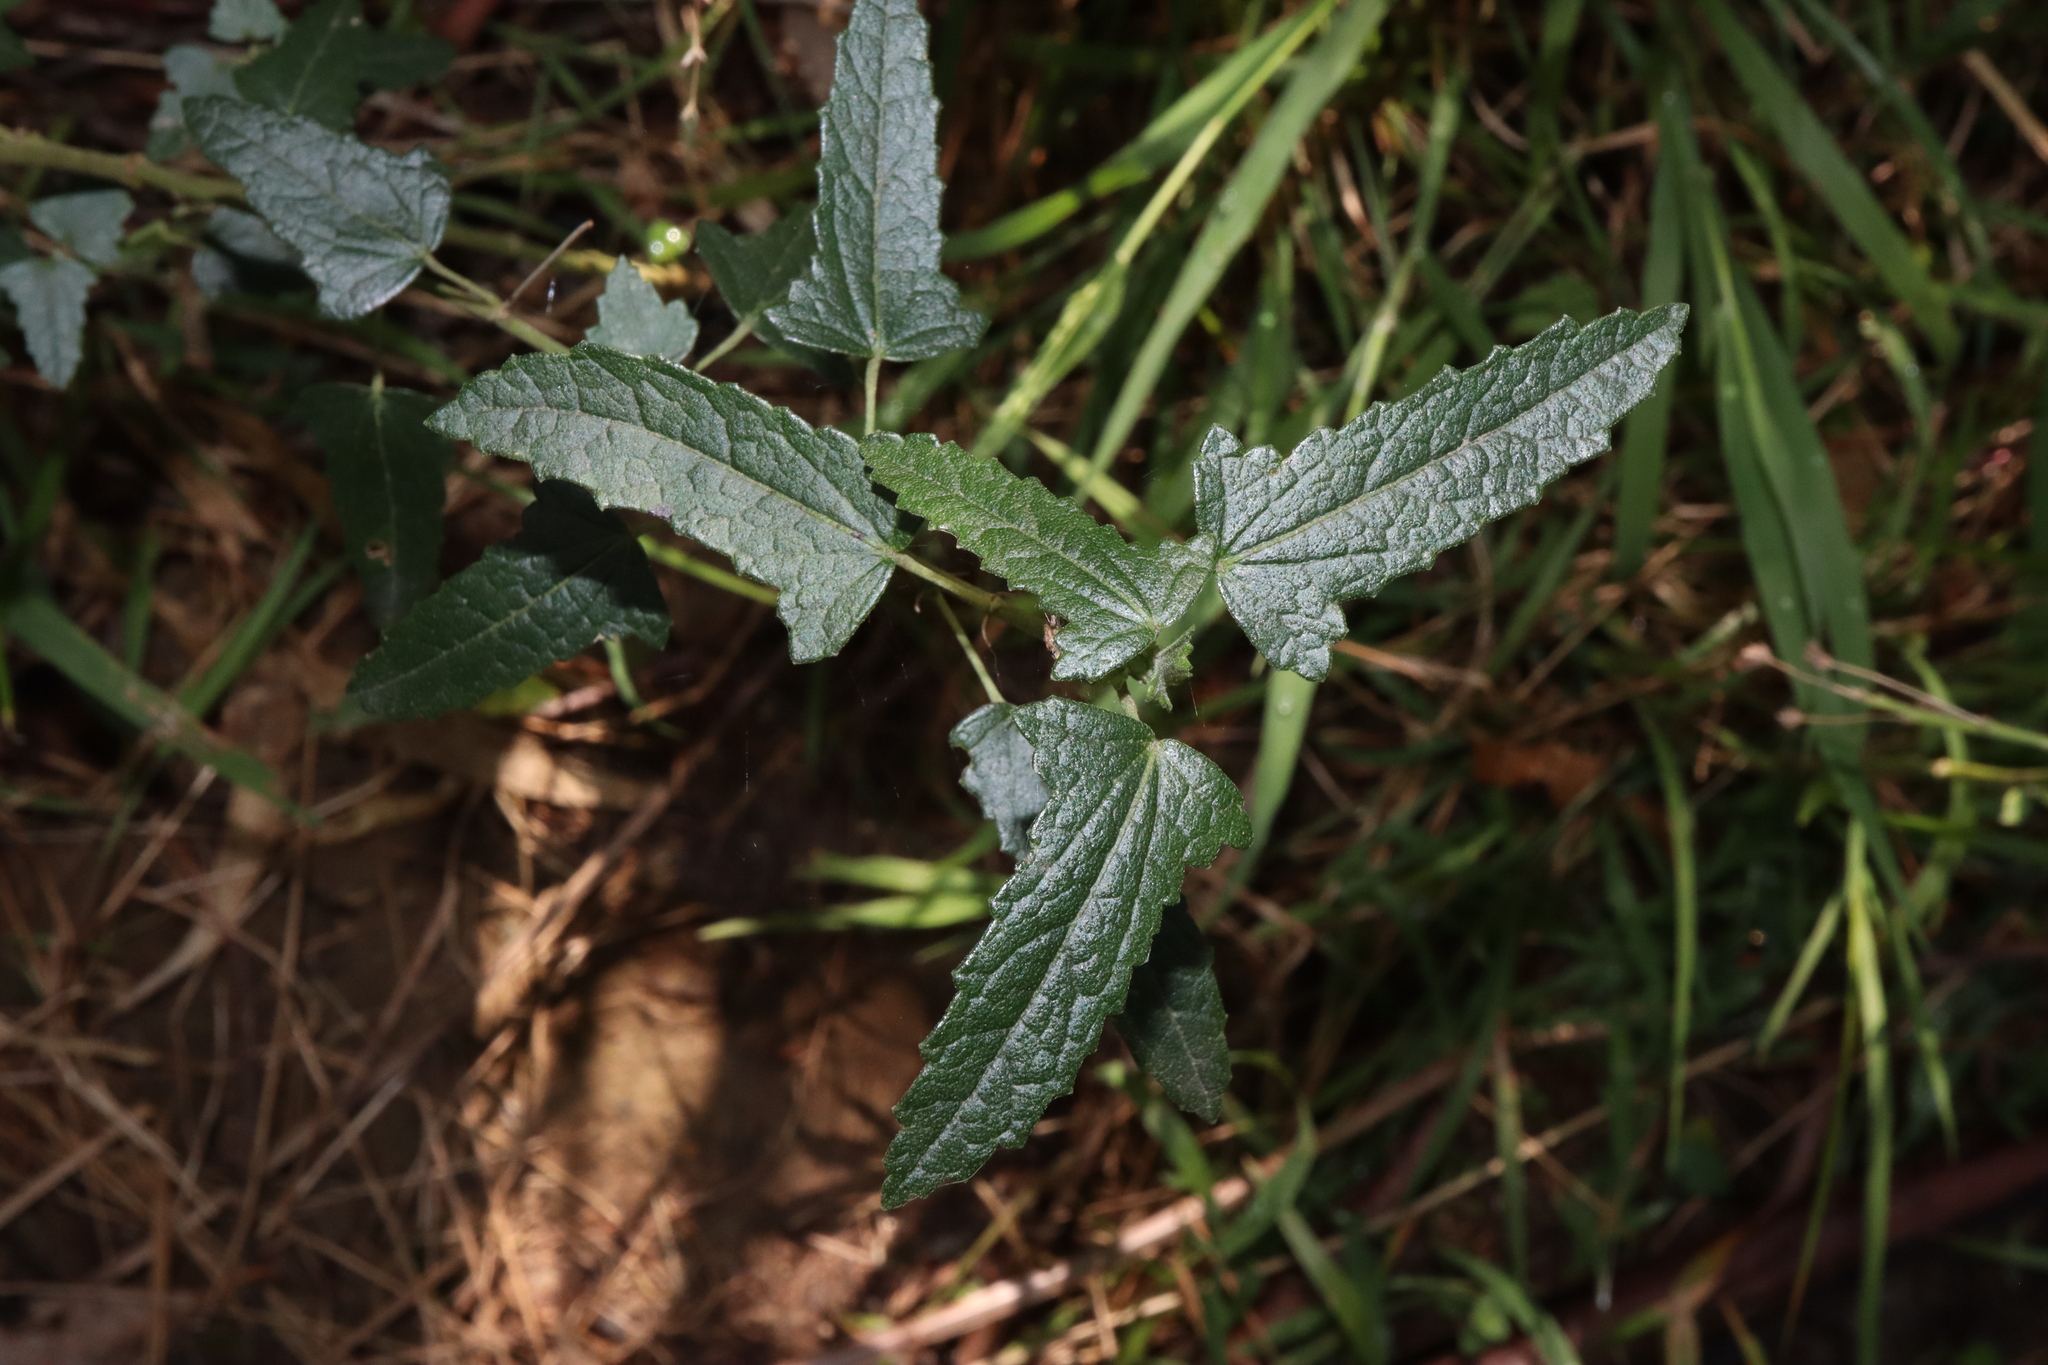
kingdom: Plantae
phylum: Tracheophyta
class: Magnoliopsida
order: Malvales
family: Malvaceae
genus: Pavonia
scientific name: Pavonia hastata
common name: Spearleaf swampmallow
